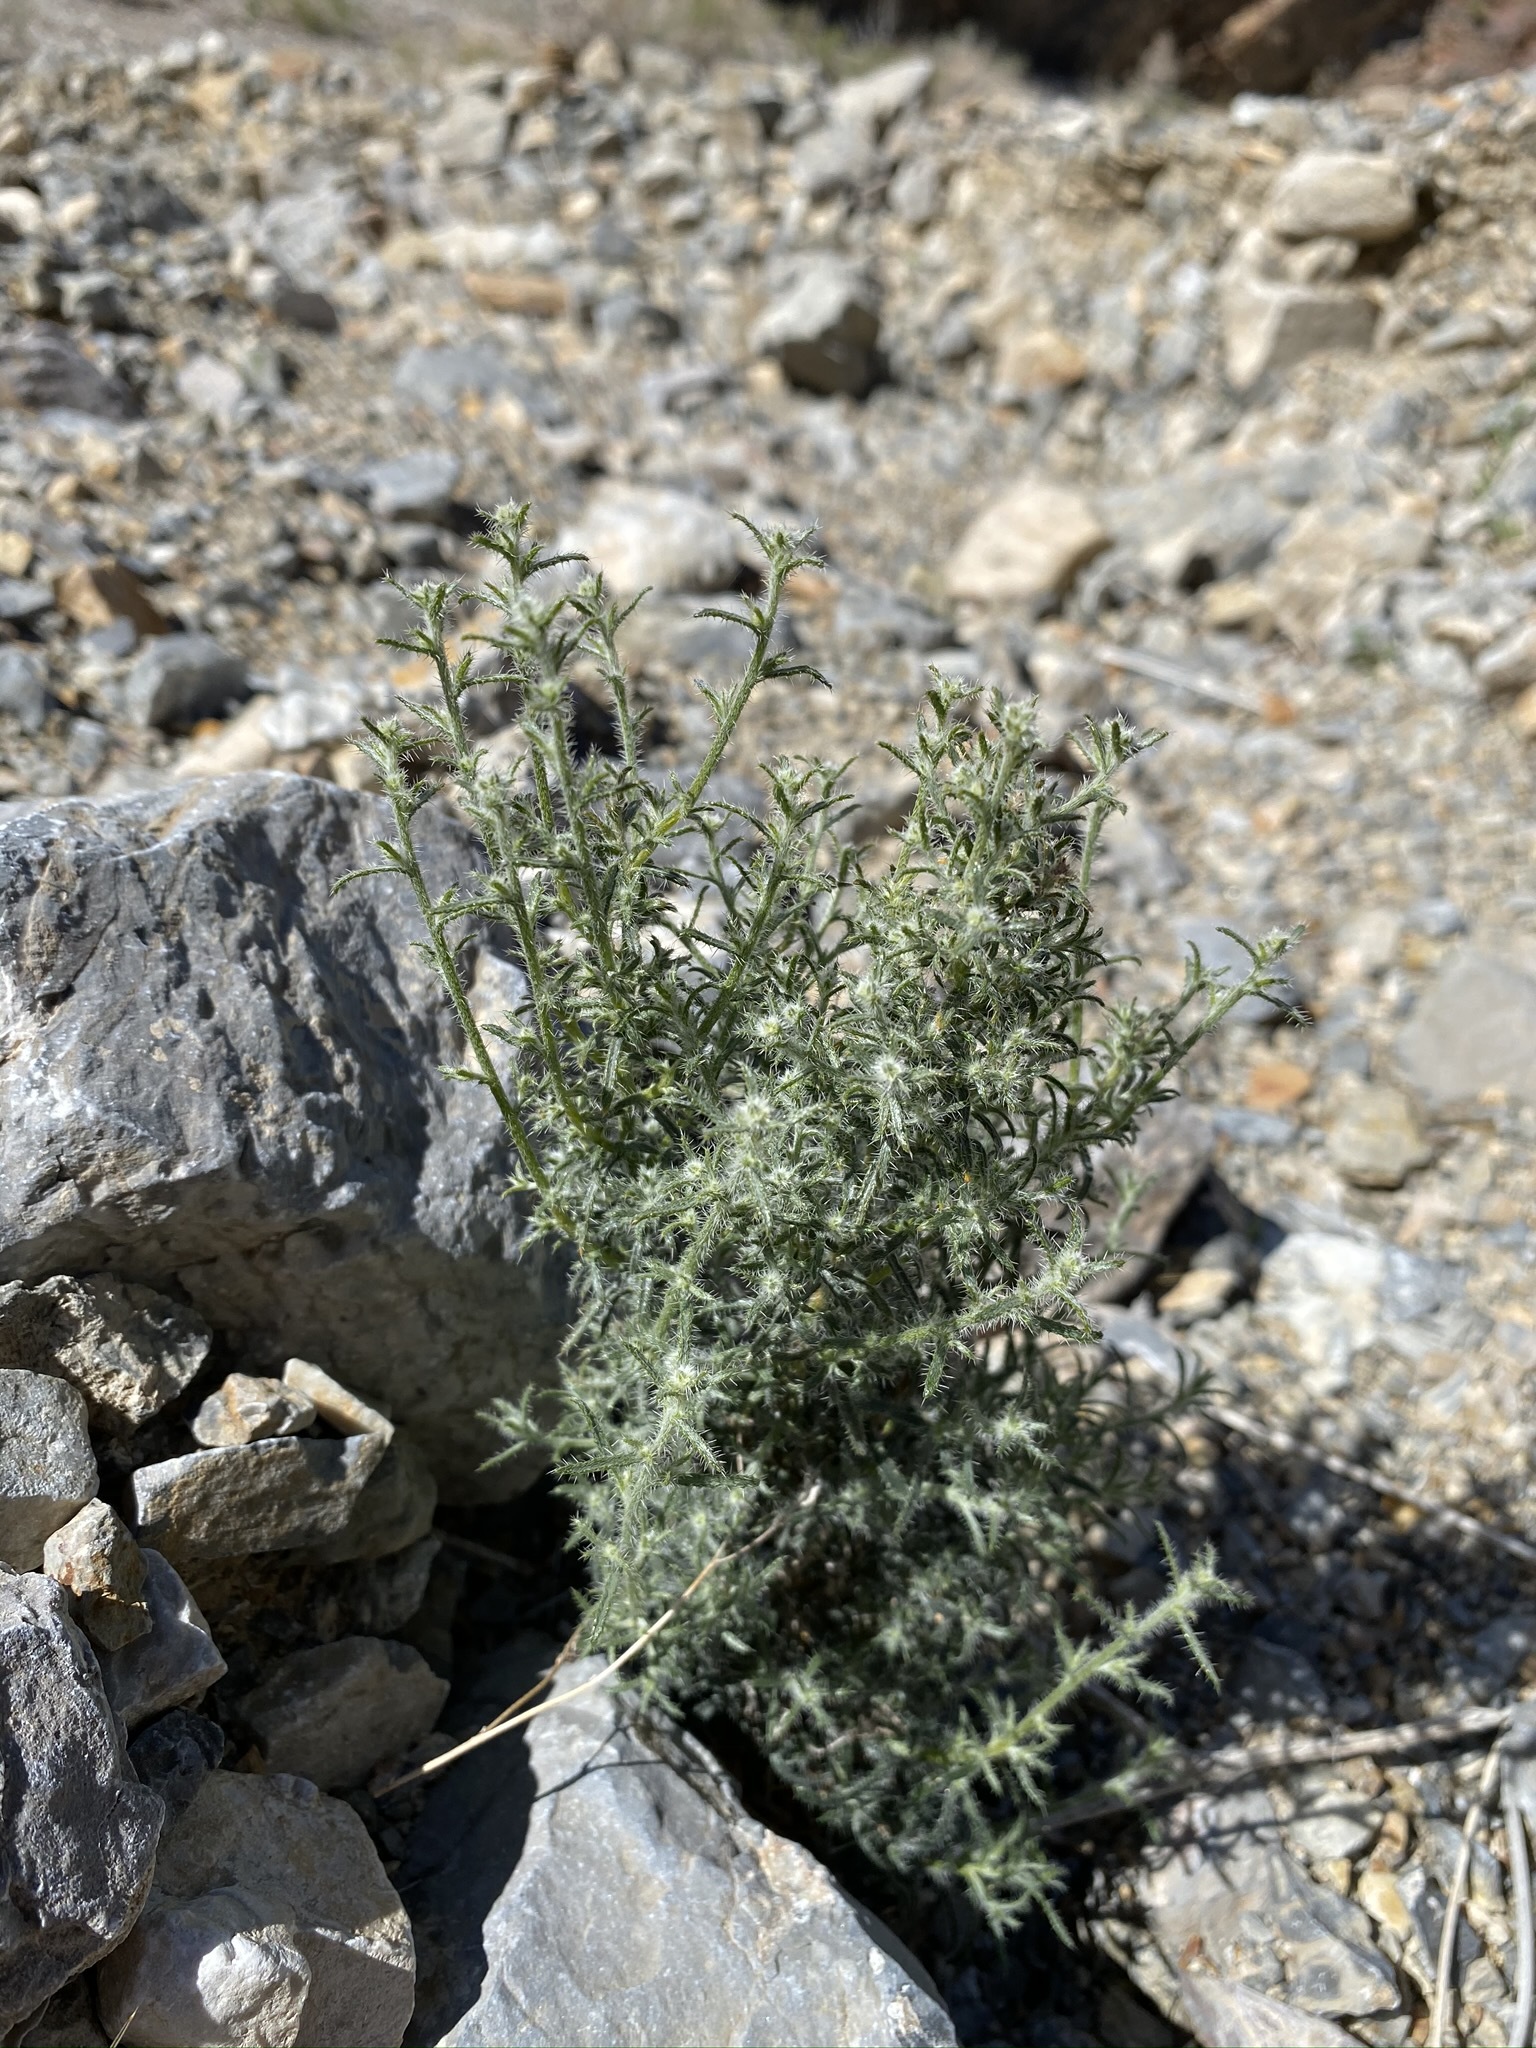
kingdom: Plantae
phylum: Tracheophyta
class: Magnoliopsida
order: Boraginales
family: Boraginaceae
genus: Johnstonella
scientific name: Johnstonella racemosa
